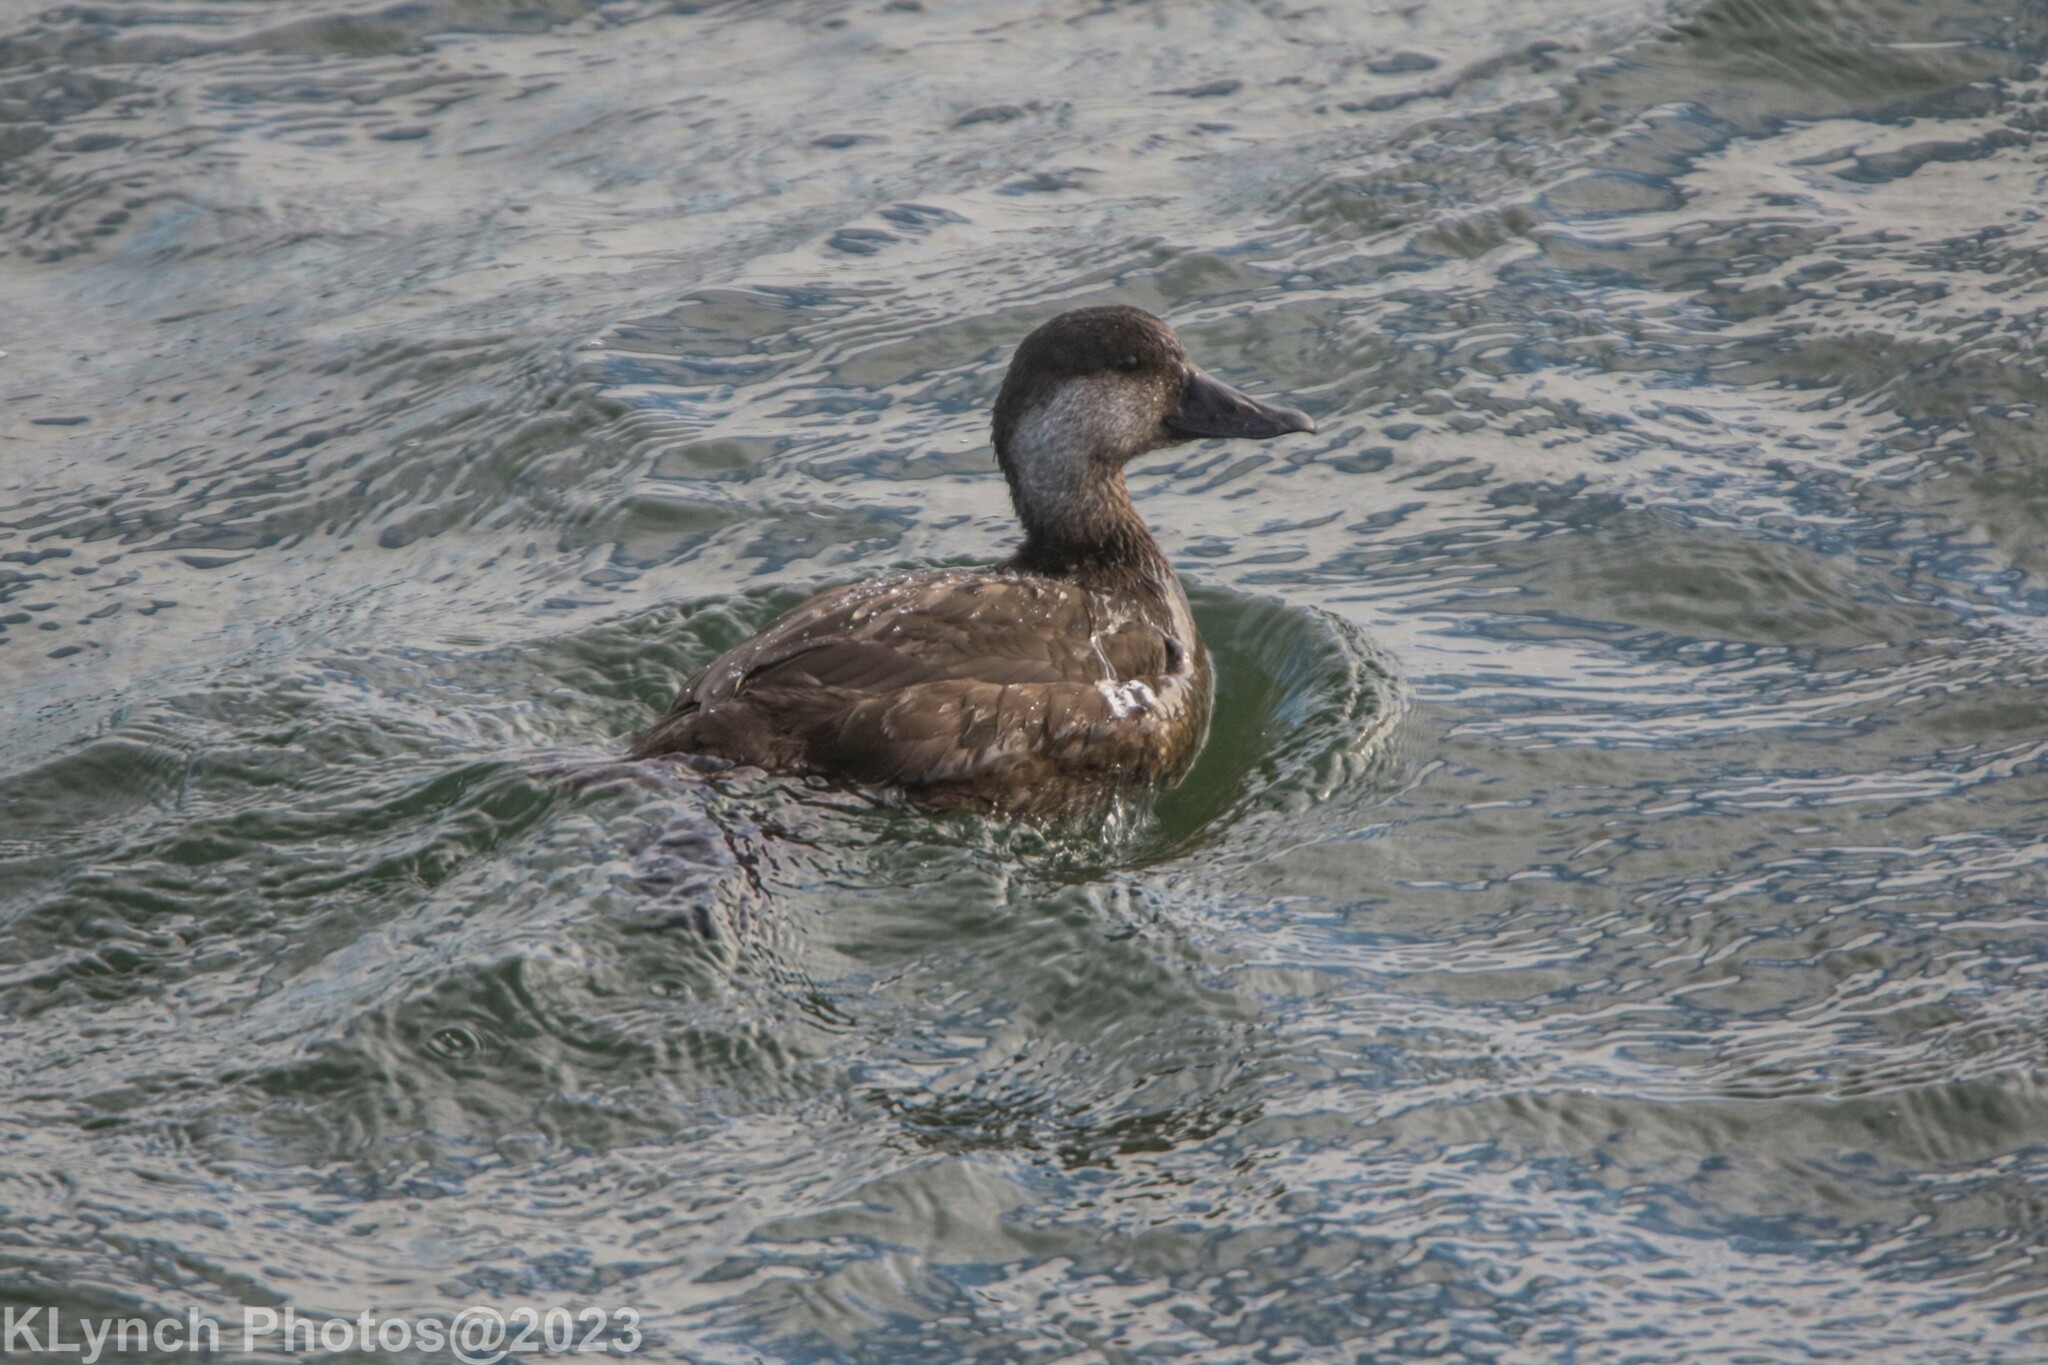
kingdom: Animalia
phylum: Chordata
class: Aves
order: Anseriformes
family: Anatidae
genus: Melanitta
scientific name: Melanitta americana
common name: Black scoter
